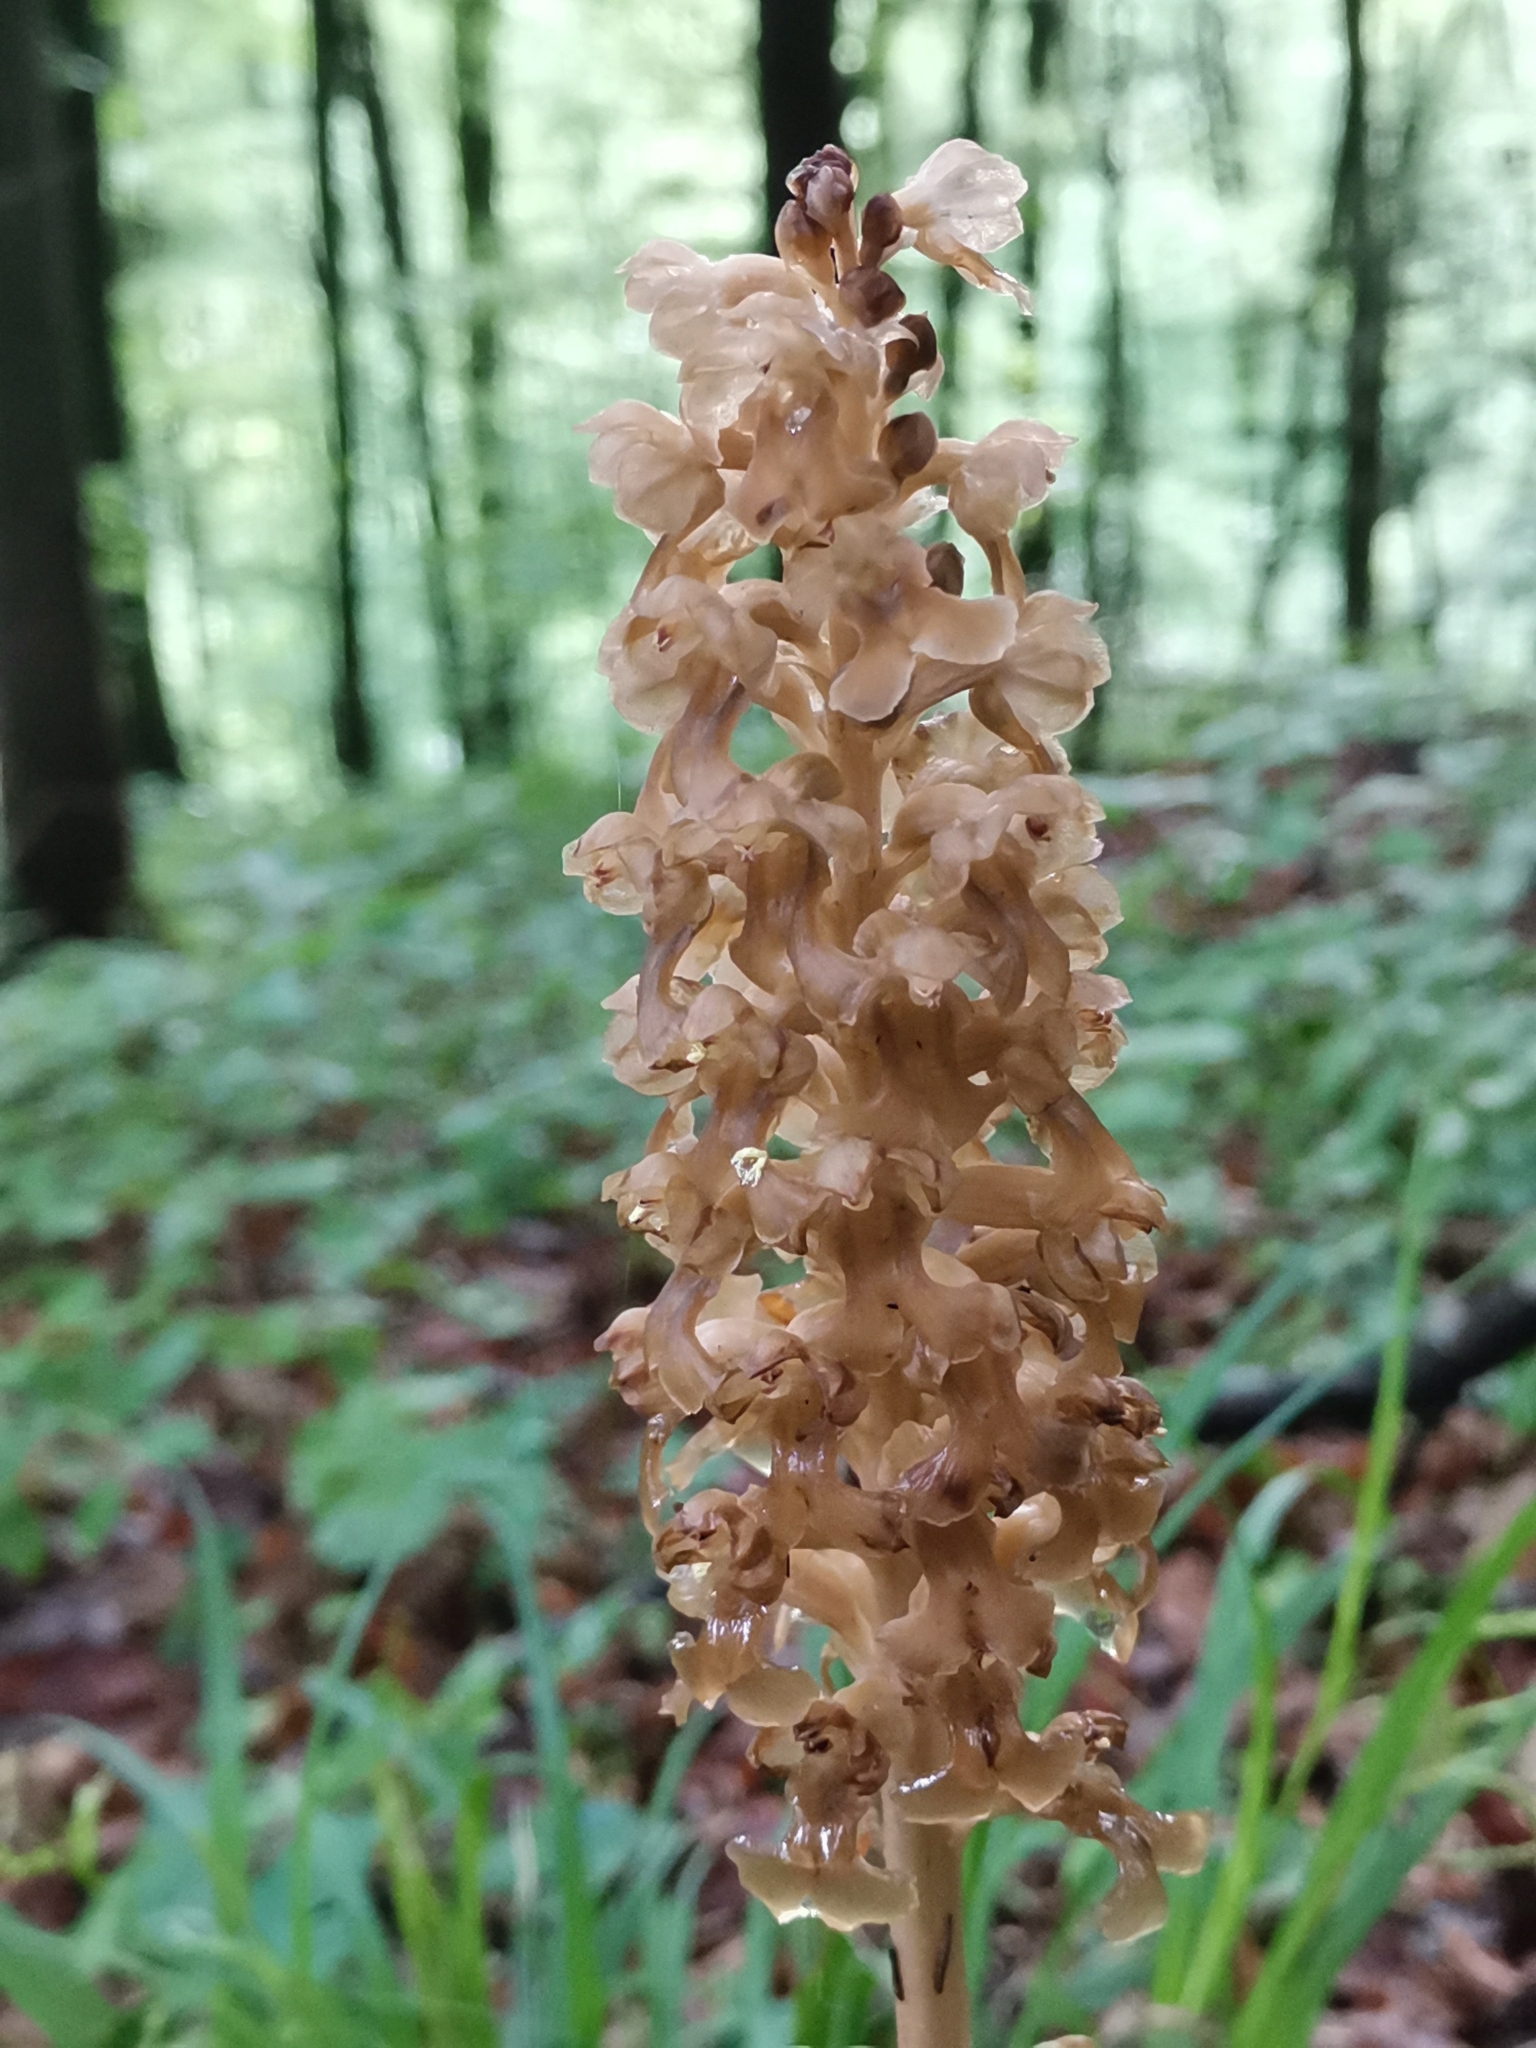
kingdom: Plantae
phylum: Tracheophyta
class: Liliopsida
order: Asparagales
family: Orchidaceae
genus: Neottia
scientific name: Neottia nidus-avis
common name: Bird's-nest orchid
